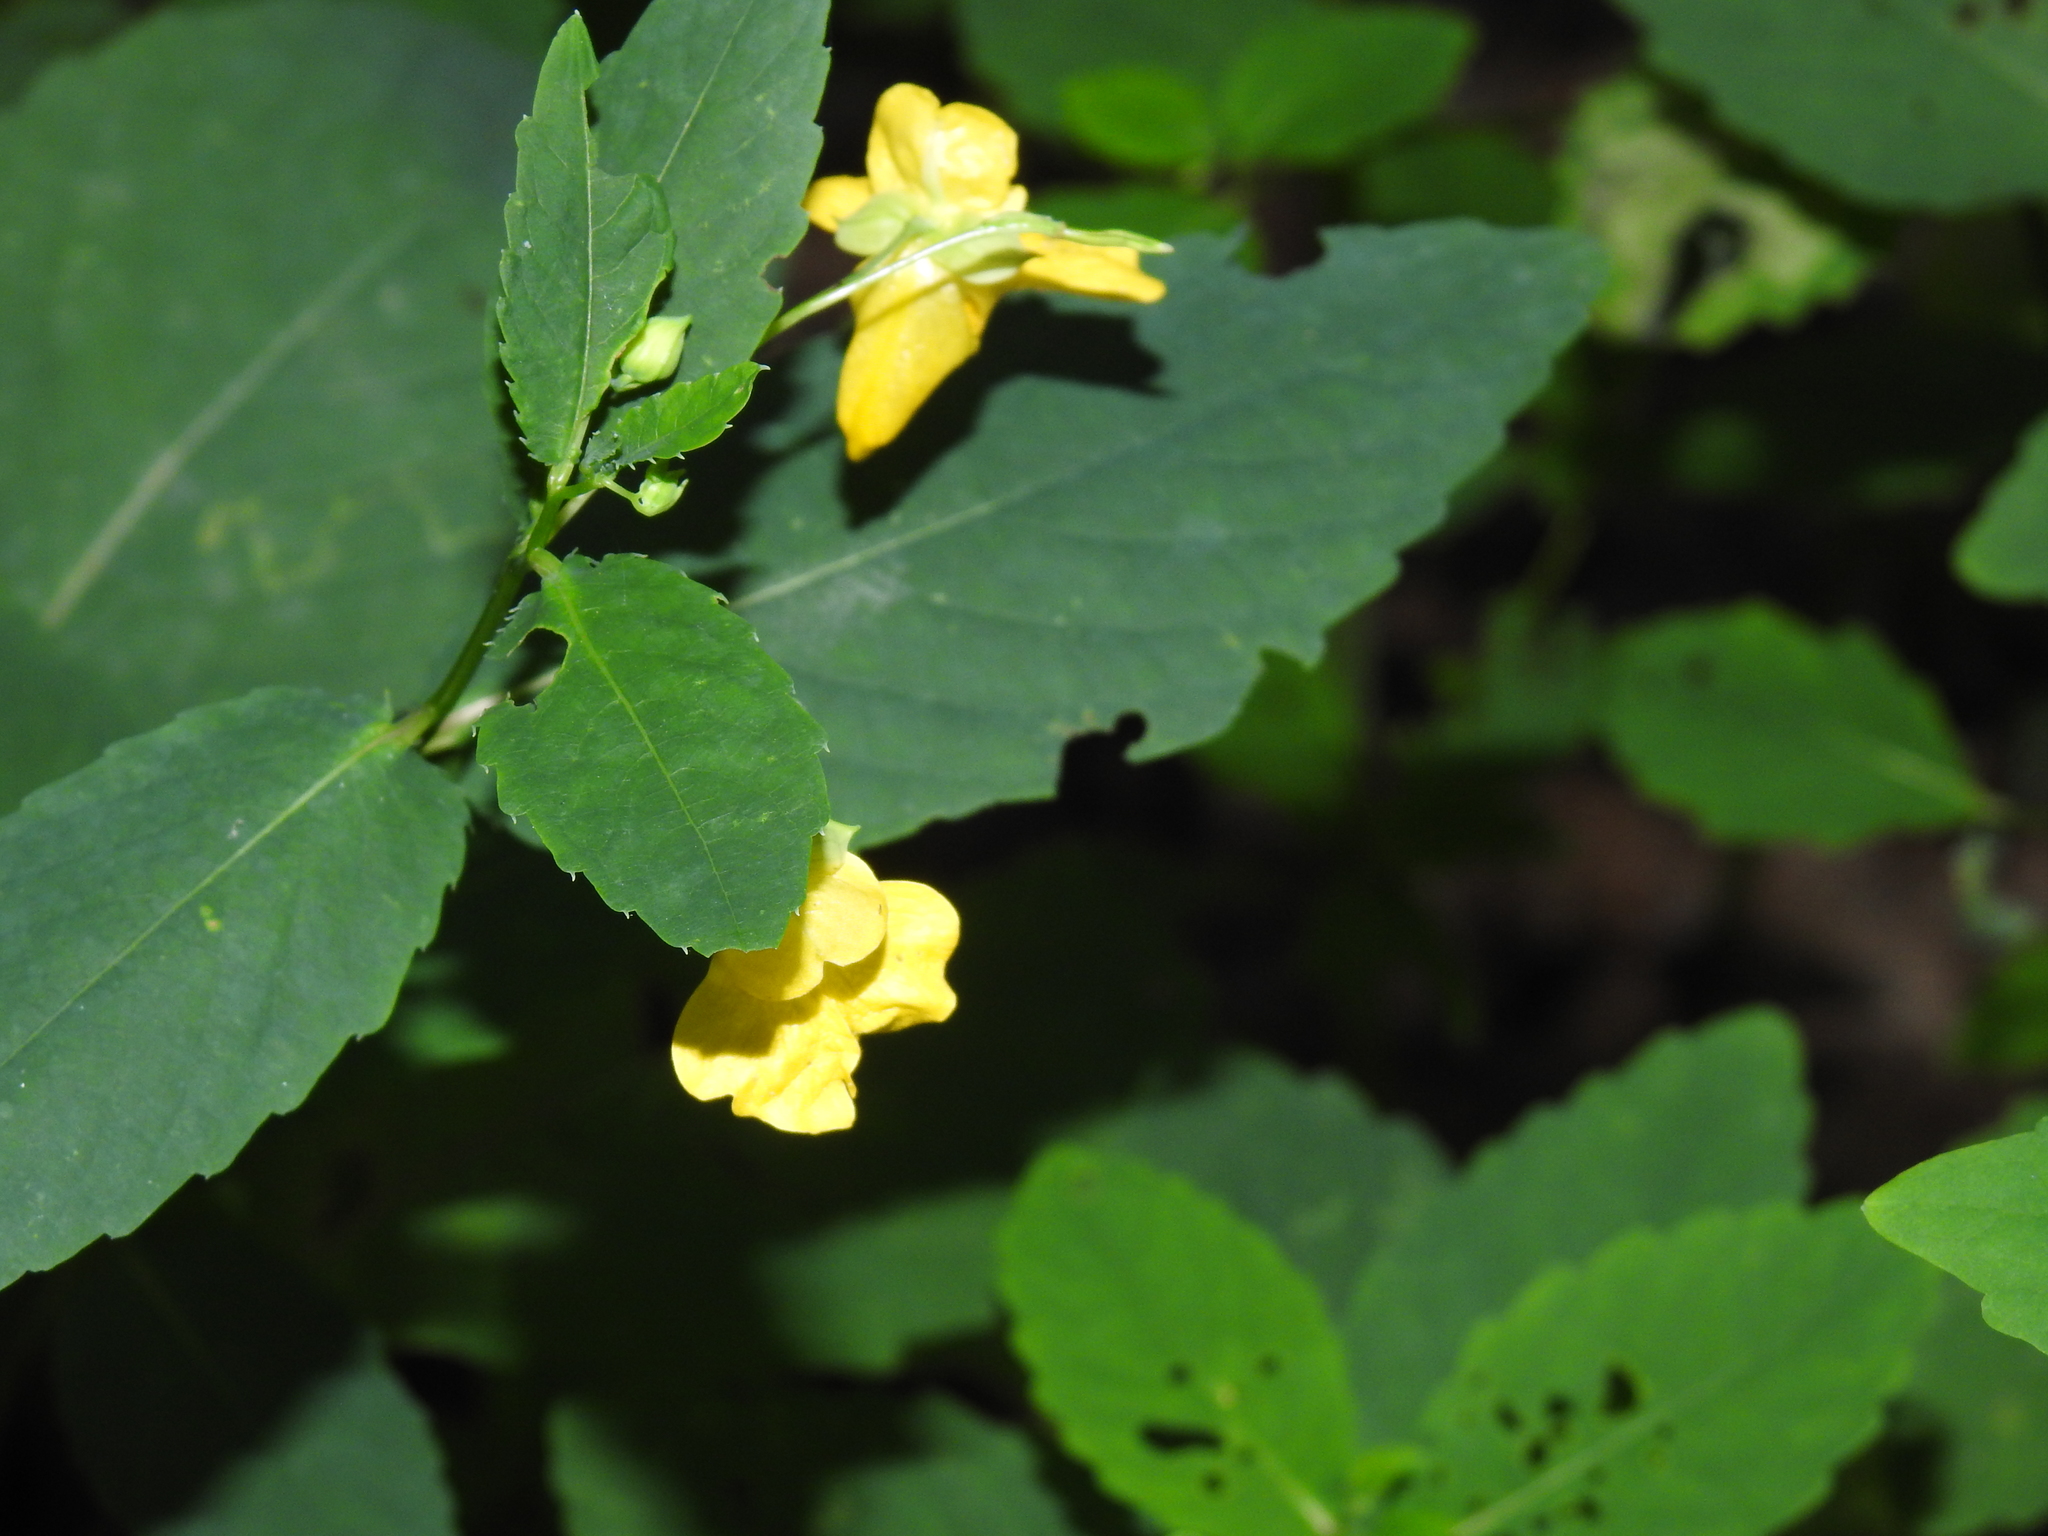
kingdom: Plantae
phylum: Tracheophyta
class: Magnoliopsida
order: Ericales
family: Balsaminaceae
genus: Impatiens
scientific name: Impatiens pallida
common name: Pale snapweed
